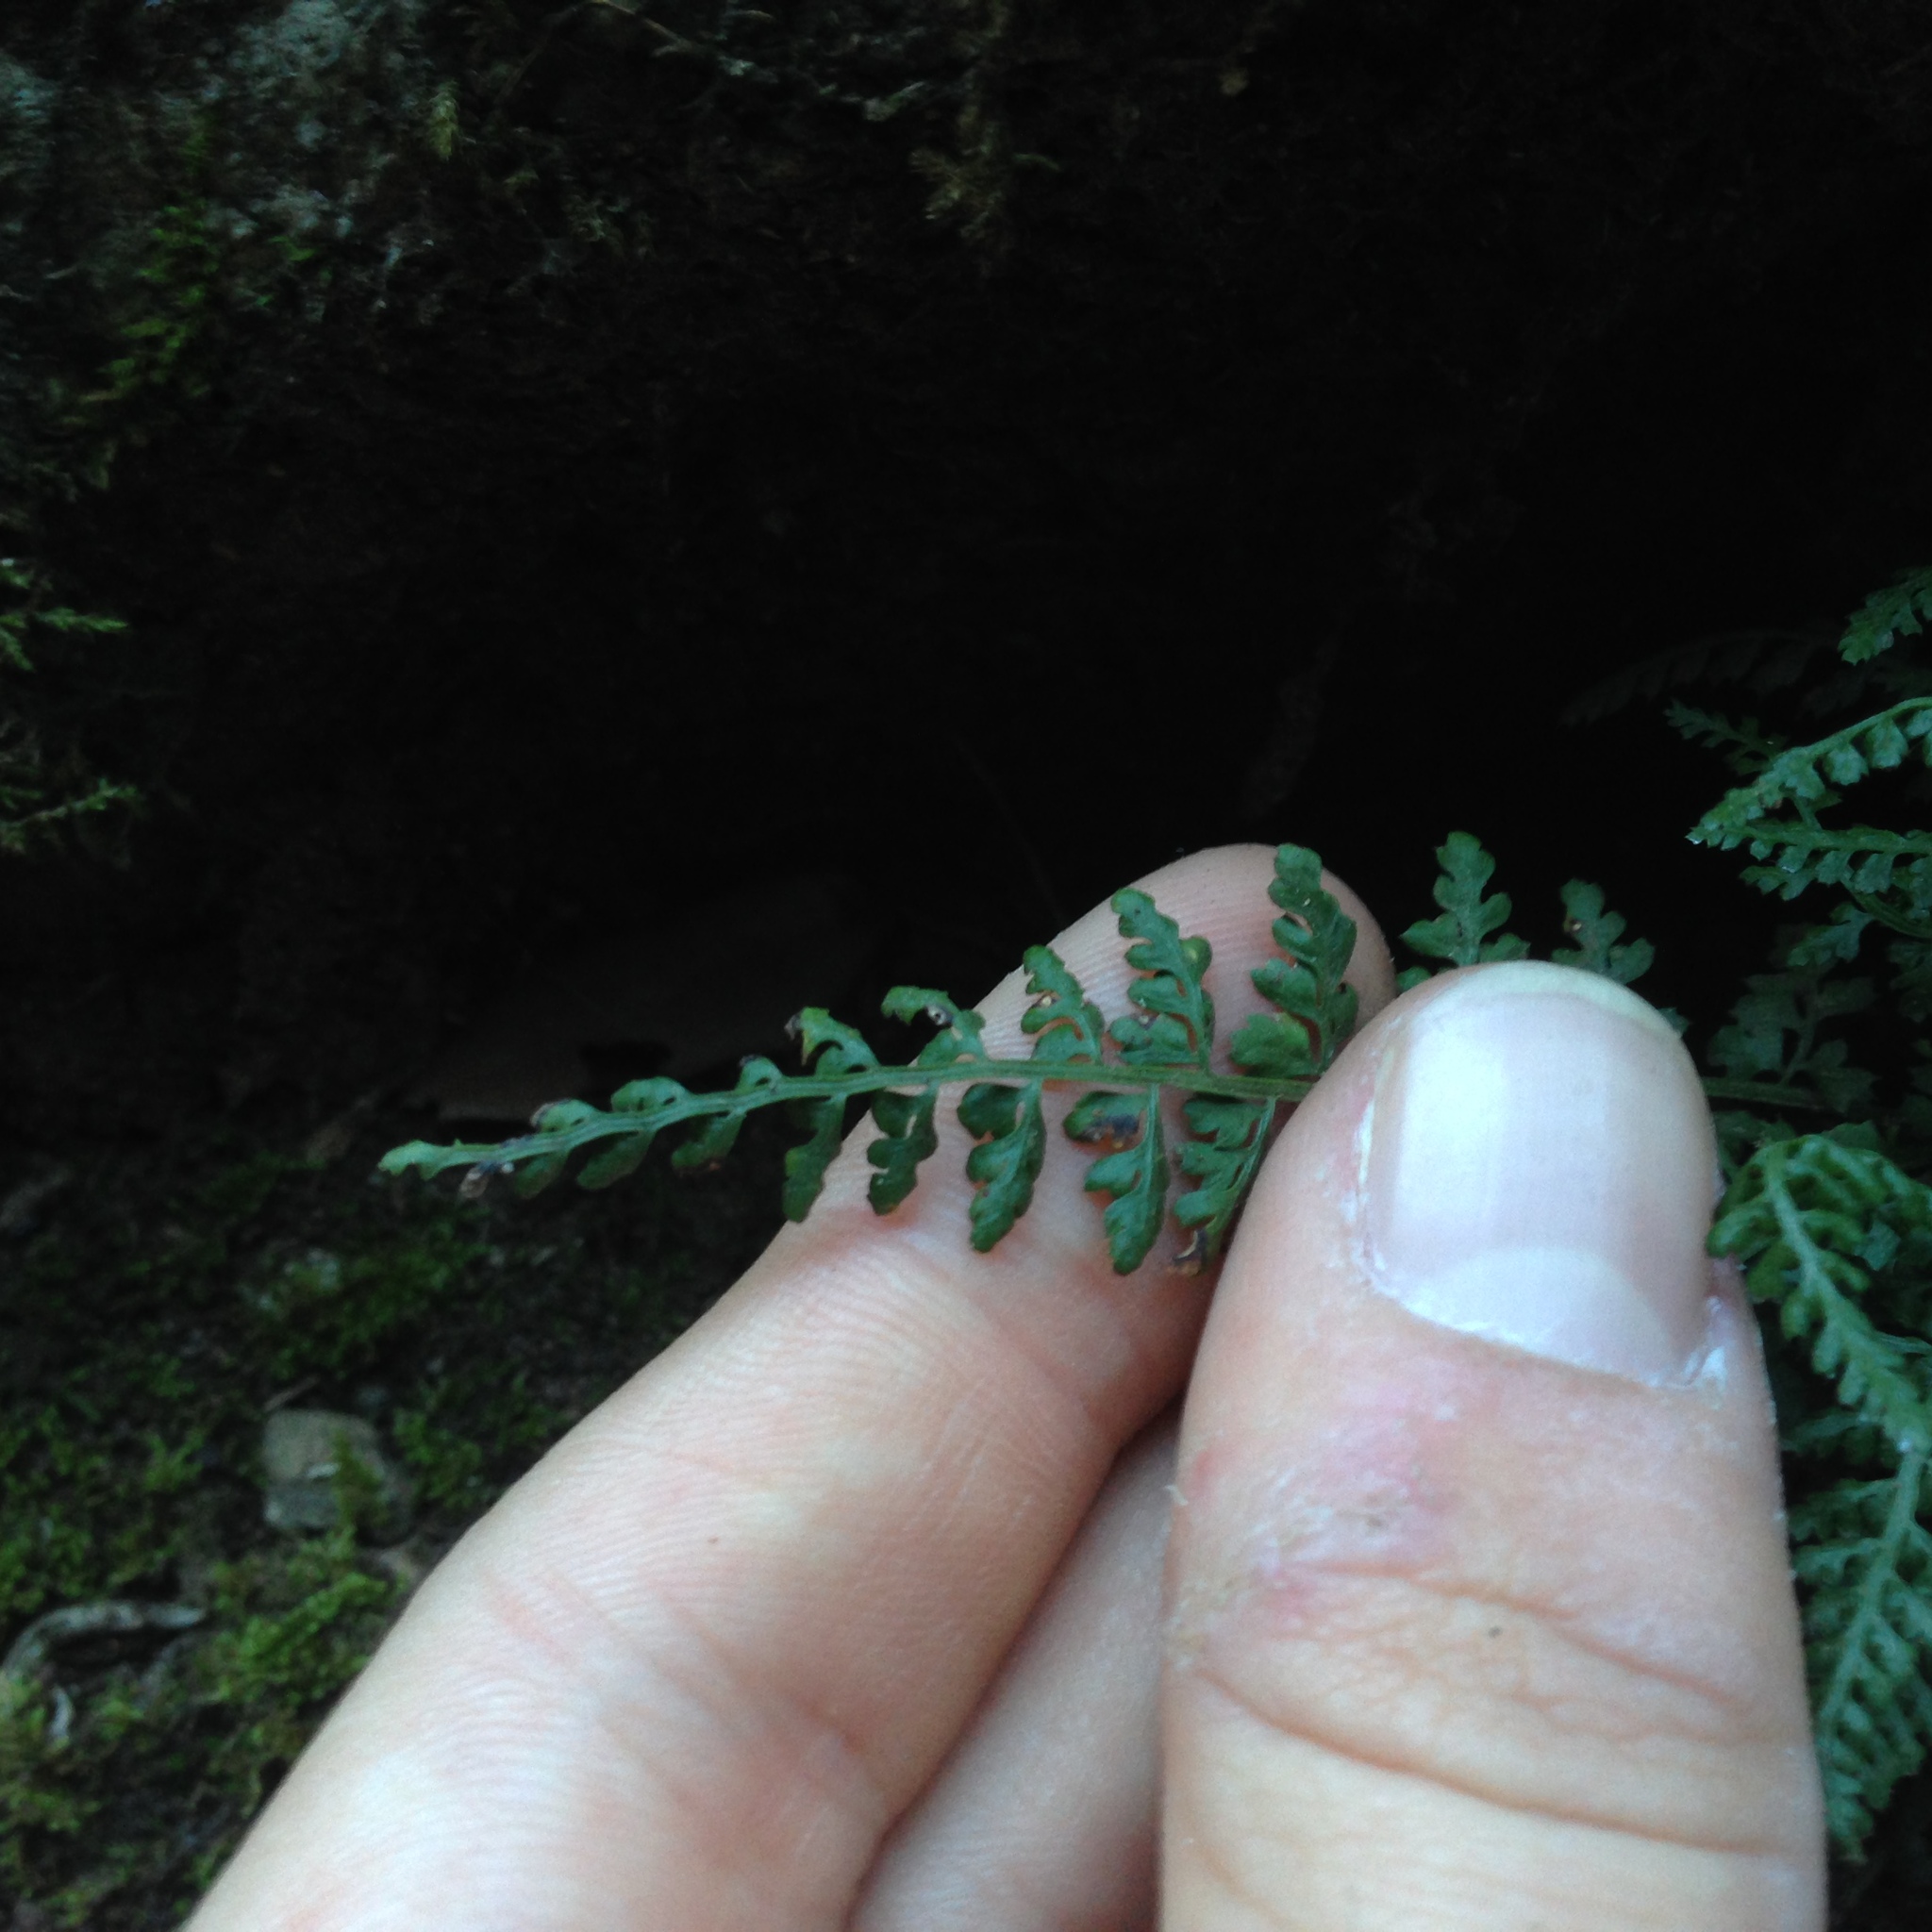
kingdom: Plantae
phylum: Tracheophyta
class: Polypodiopsida
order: Polypodiales
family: Aspleniaceae
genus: Asplenium
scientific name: Asplenium fontanum
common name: Fountain spleenwort
